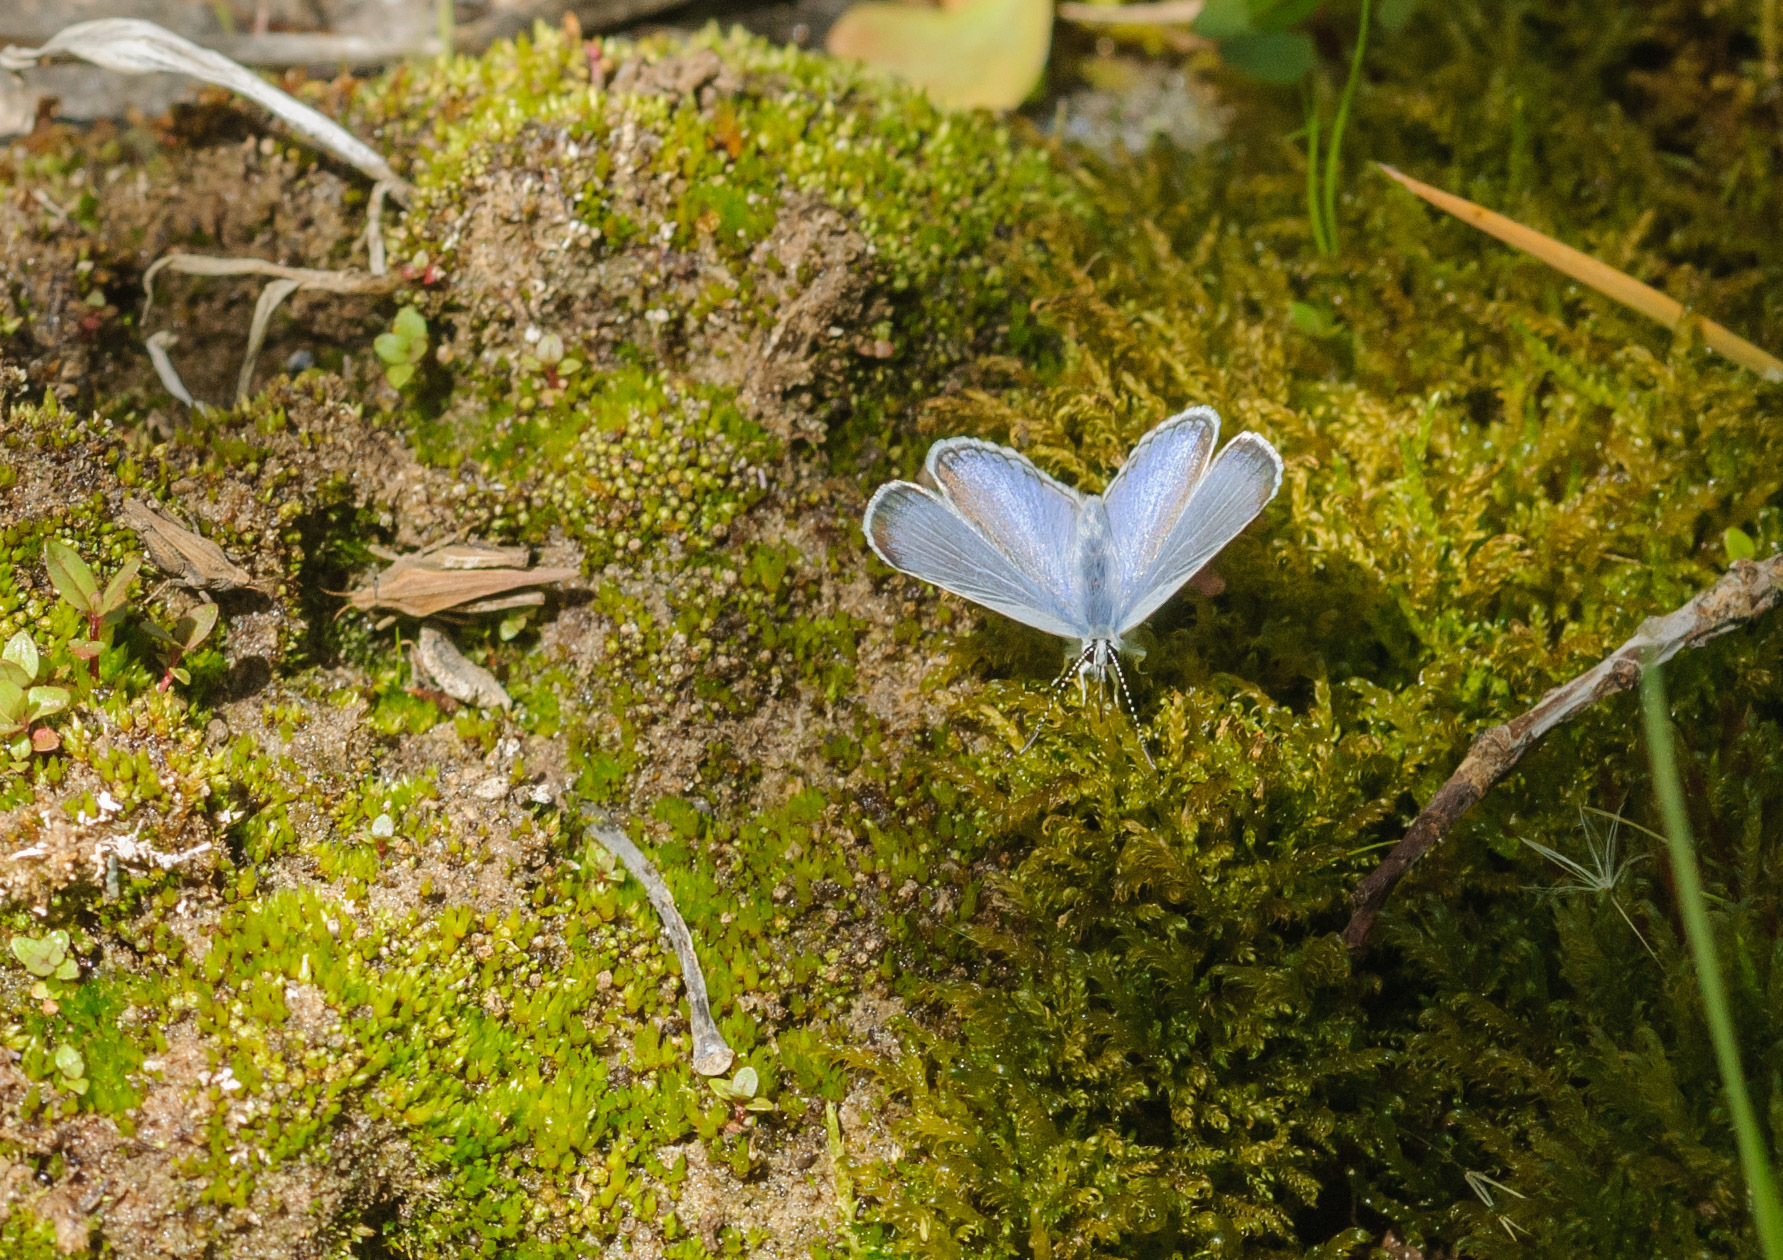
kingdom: Animalia
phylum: Arthropoda
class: Insecta
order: Lepidoptera
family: Lycaenidae
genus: Elkalyce
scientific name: Elkalyce amyntula
